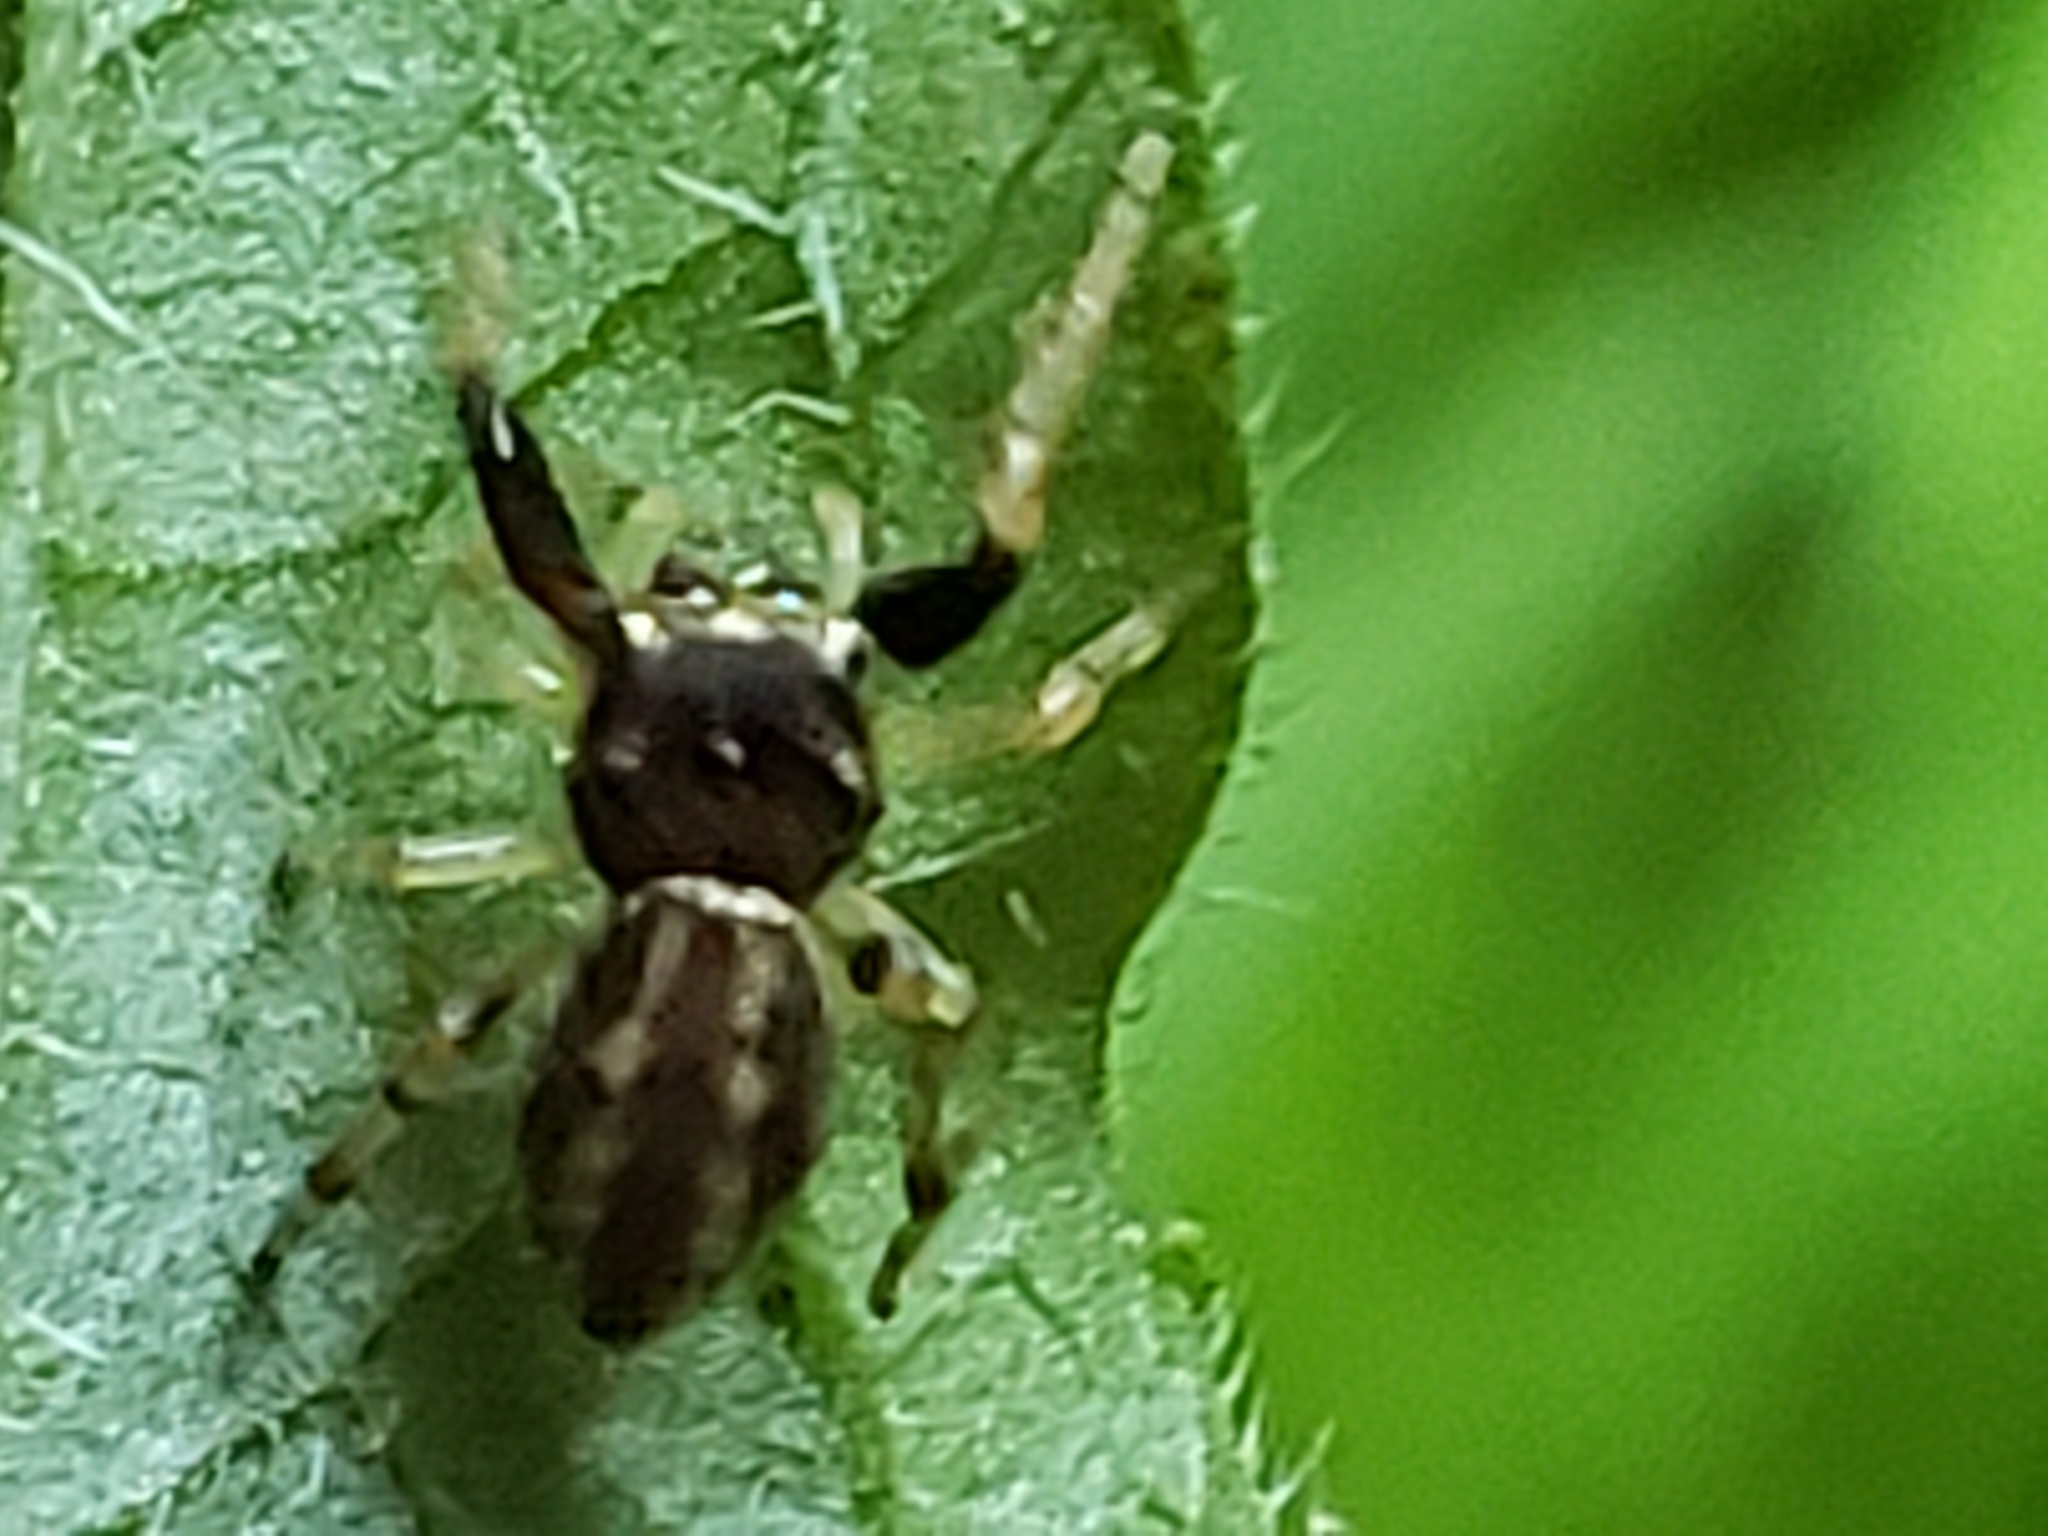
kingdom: Animalia
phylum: Arthropoda
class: Arachnida
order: Araneae
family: Salticidae
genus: Zygoballus
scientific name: Zygoballus rufipes
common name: Jumping spiders
